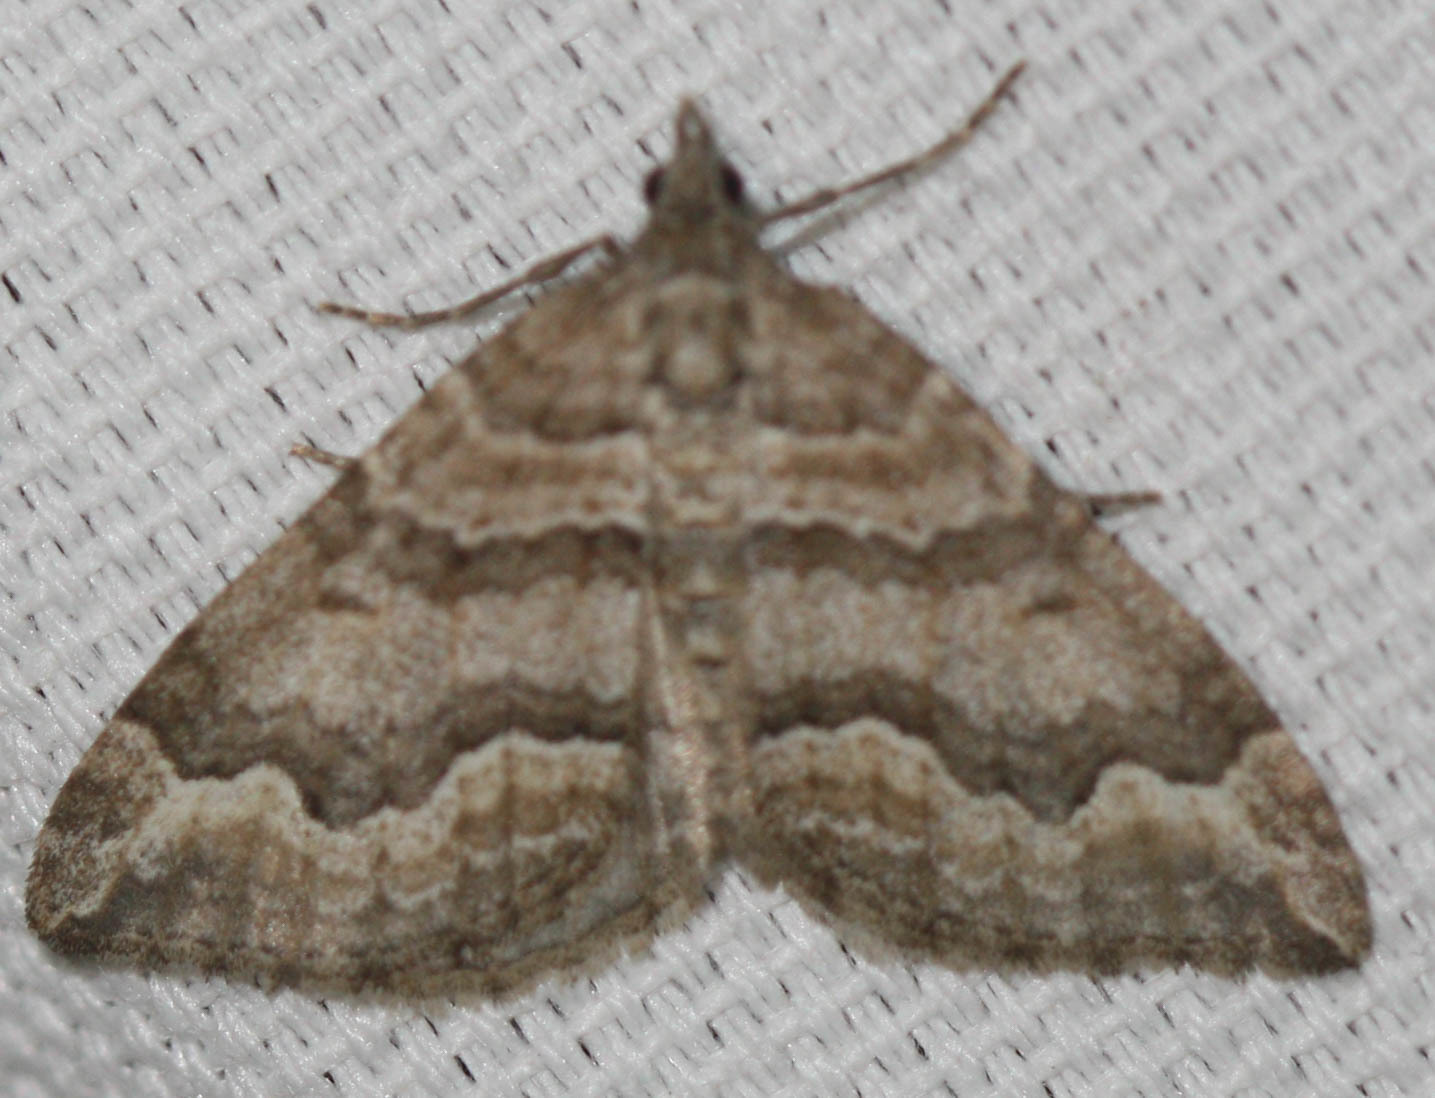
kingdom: Animalia
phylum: Arthropoda
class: Insecta
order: Lepidoptera
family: Geometridae
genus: Perizoma
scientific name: Perizoma epictata
